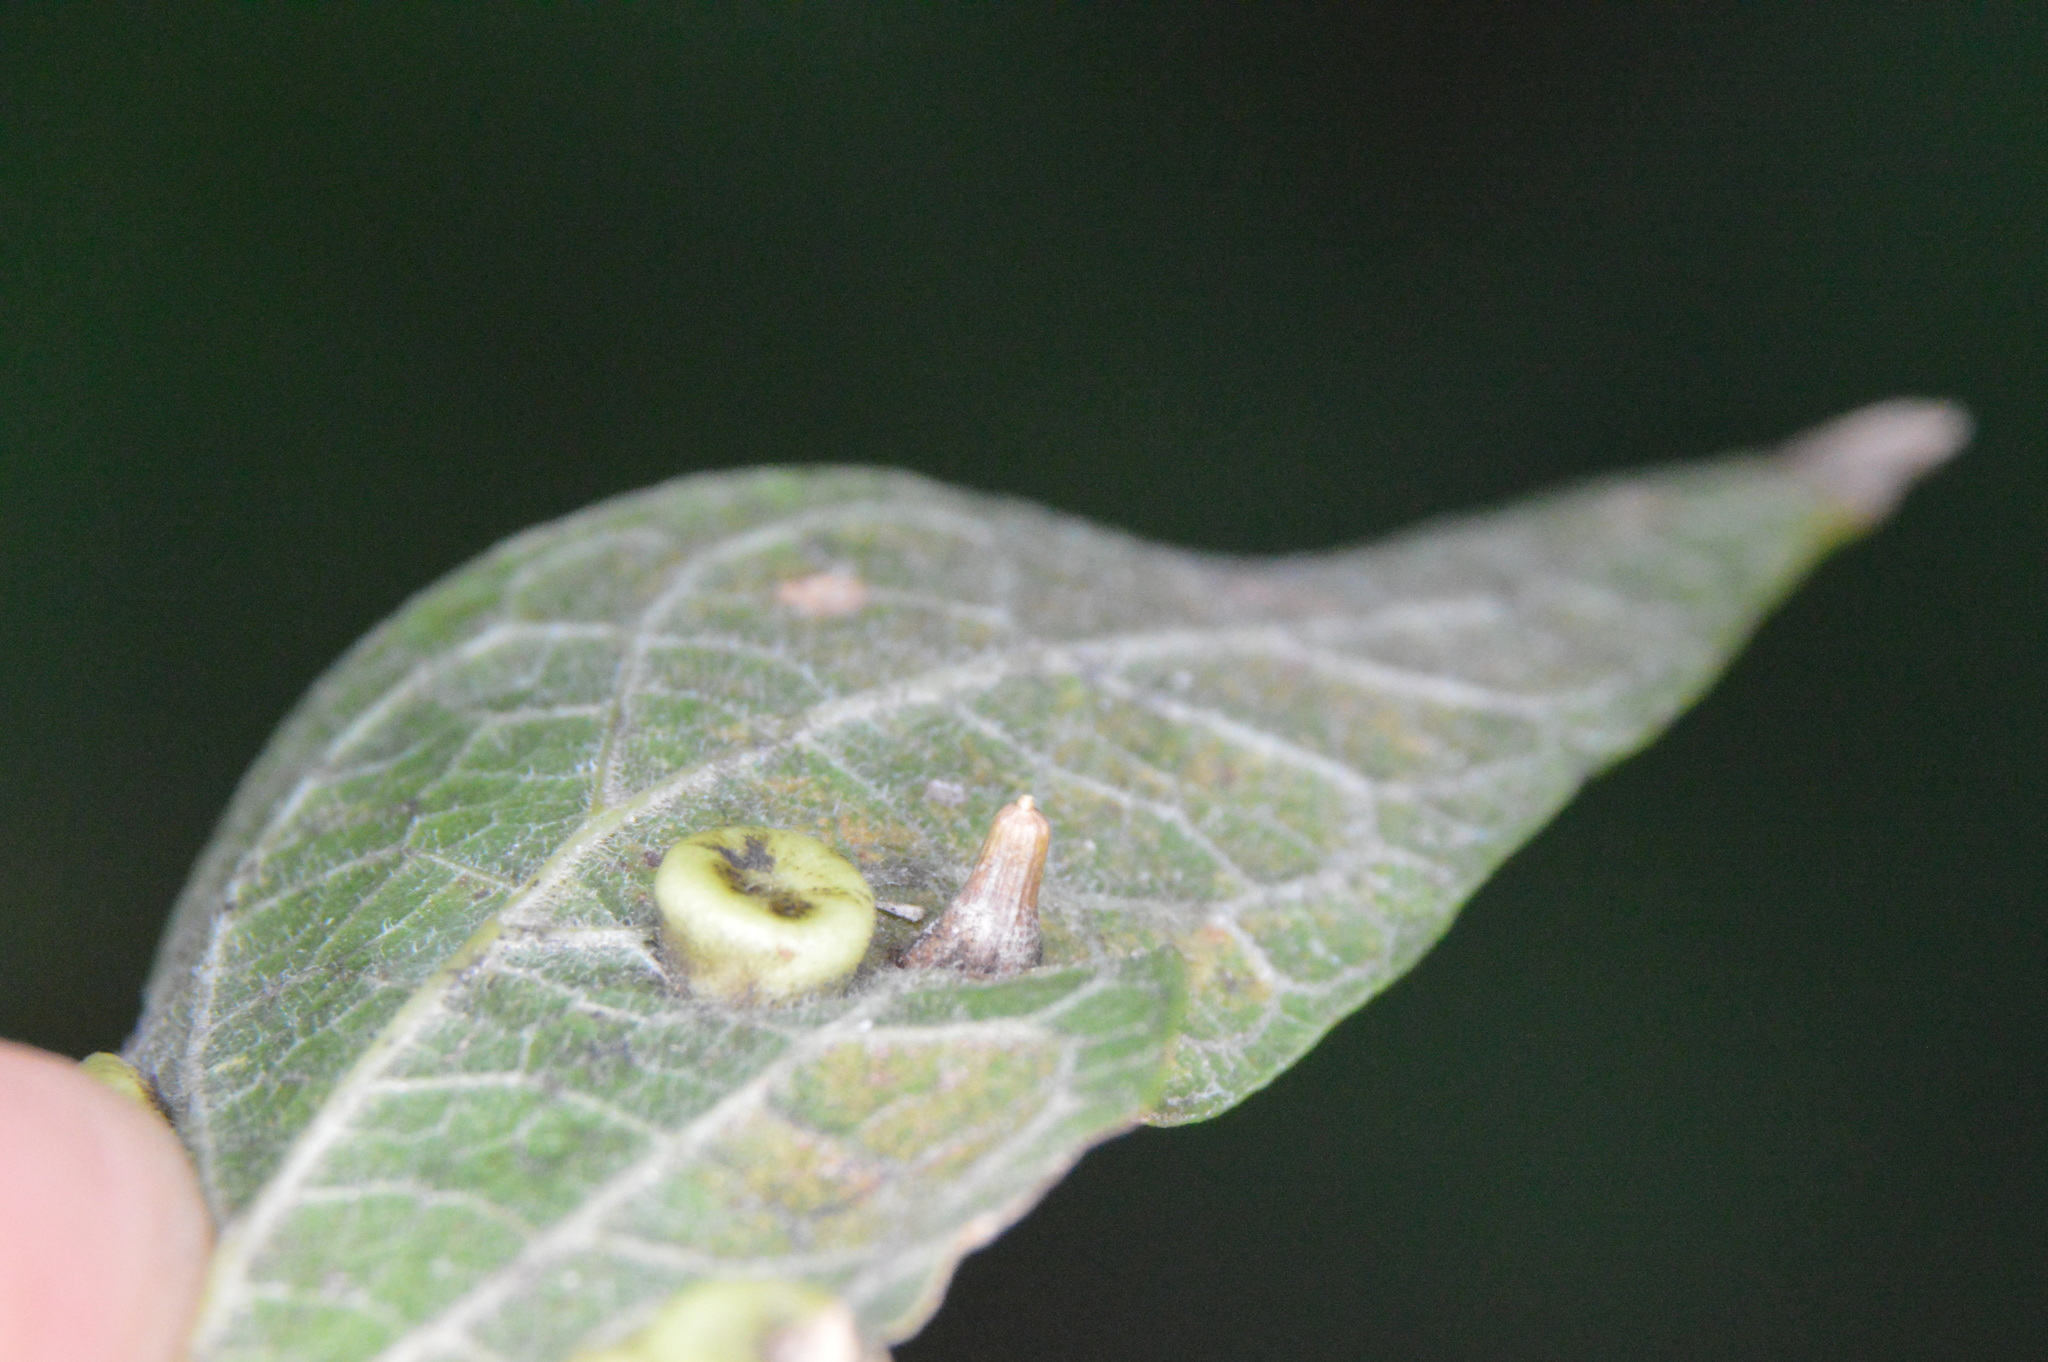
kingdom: Animalia
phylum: Arthropoda
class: Insecta
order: Diptera
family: Cecidomyiidae
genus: Celticecis
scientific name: Celticecis aciculata
